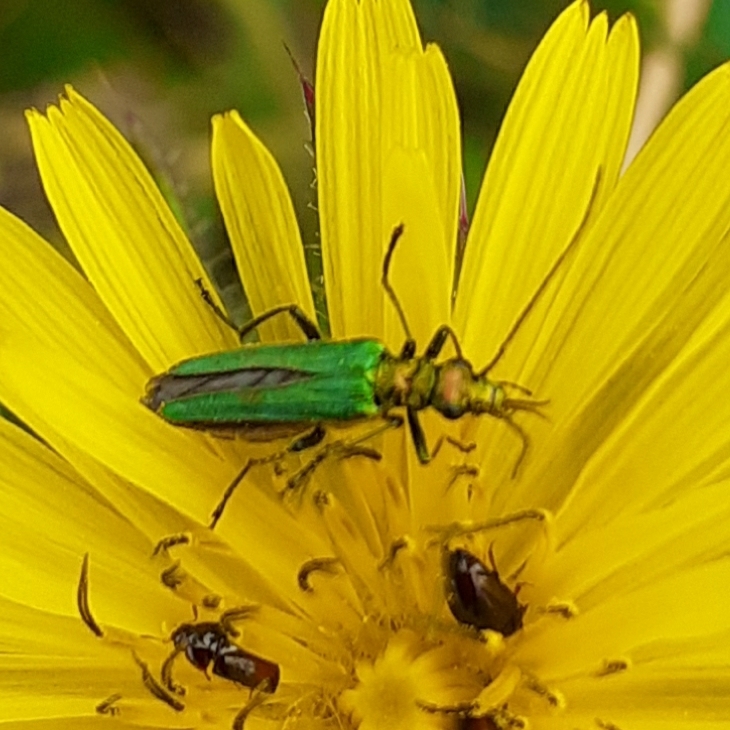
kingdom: Animalia
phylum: Arthropoda
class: Insecta
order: Coleoptera
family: Oedemeridae
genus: Oedemera
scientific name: Oedemera nobilis
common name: Swollen-thighed beetle
